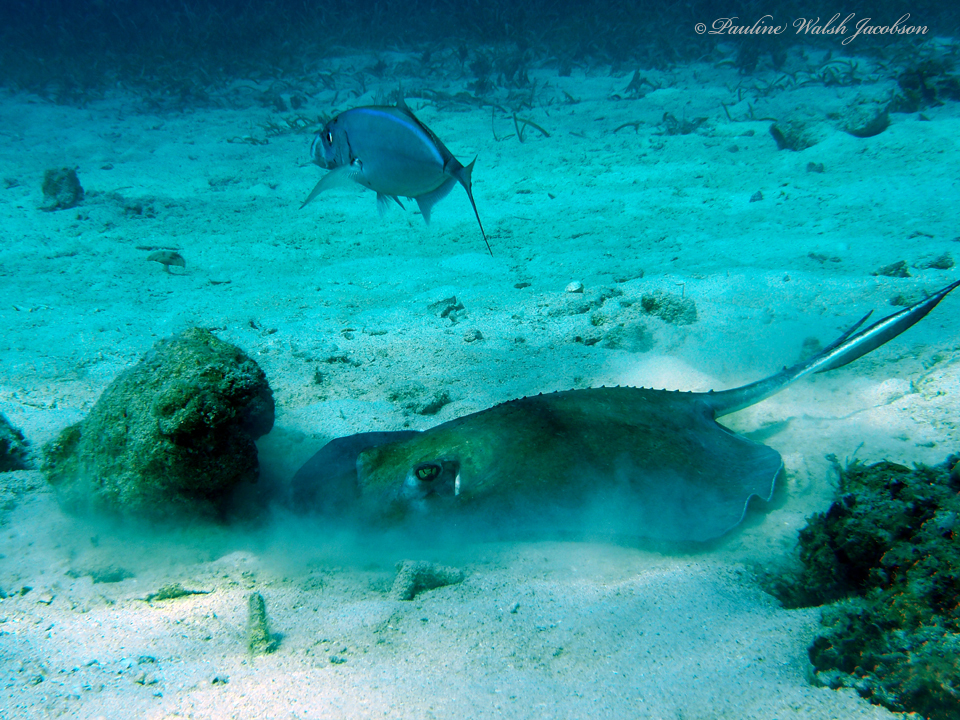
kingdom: Animalia
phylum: Chordata
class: Elasmobranchii
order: Myliobatiformes
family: Dasyatidae
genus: Hypanus
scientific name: Hypanus americanus
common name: Southern stingray
